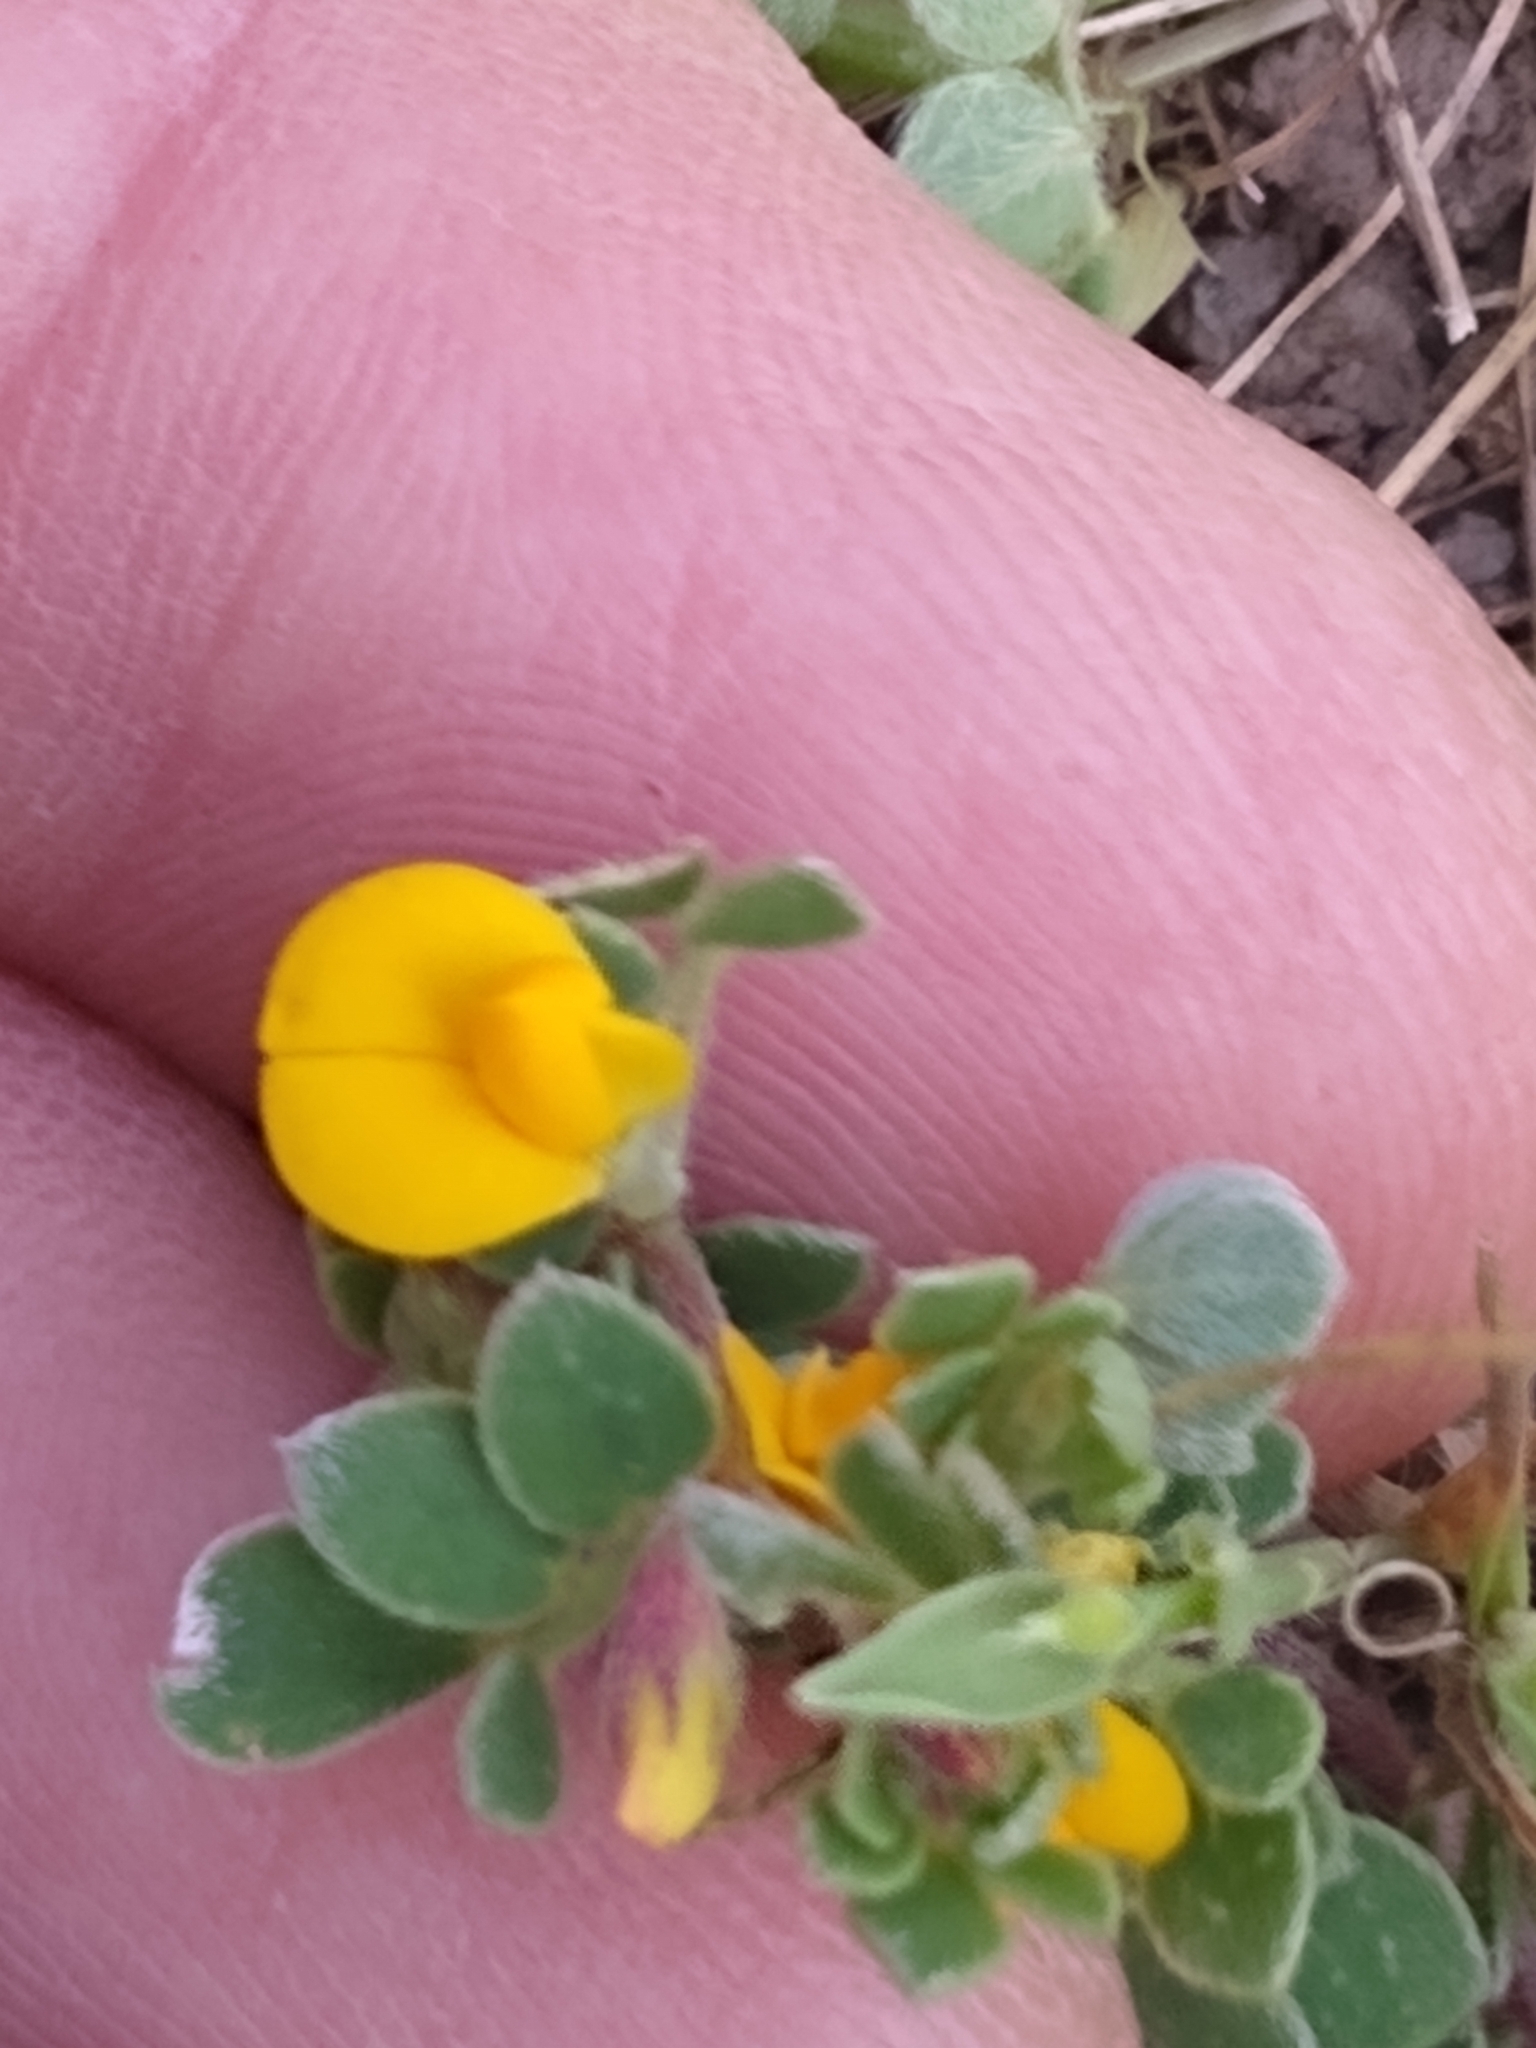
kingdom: Plantae
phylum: Tracheophyta
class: Magnoliopsida
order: Fabales
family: Fabaceae
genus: Acmispon
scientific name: Acmispon wrangelianus
